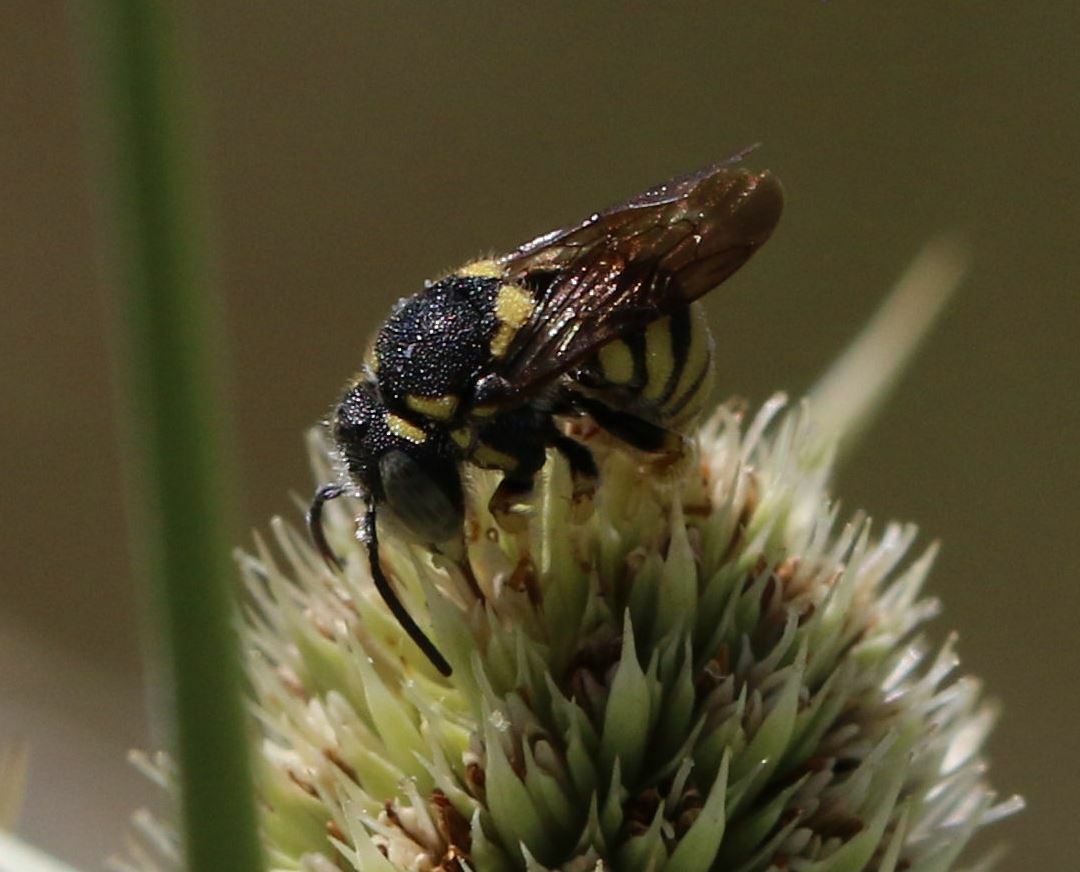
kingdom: Animalia
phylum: Arthropoda
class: Insecta
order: Hymenoptera
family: Megachilidae
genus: Anthidiellum
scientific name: Anthidiellum strigatum
